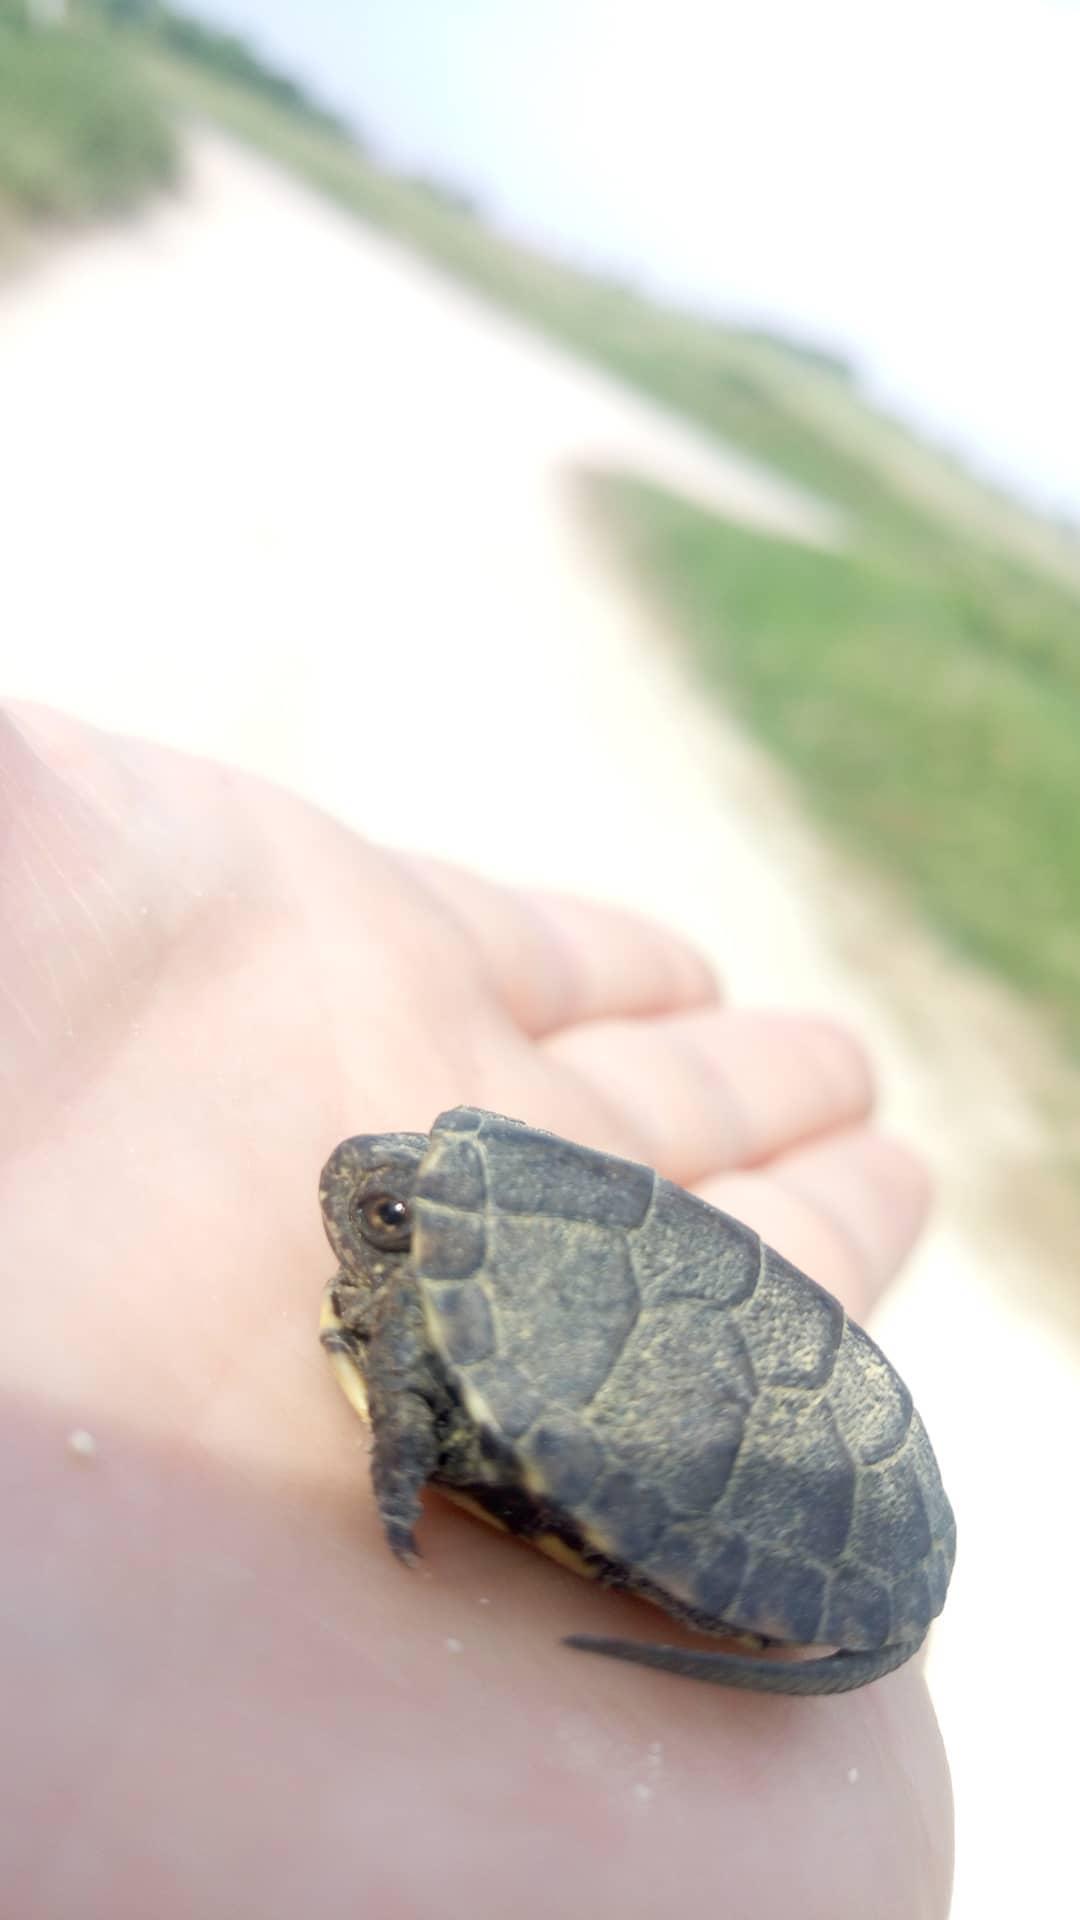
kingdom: Animalia
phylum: Chordata
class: Testudines
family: Emydidae
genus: Emys
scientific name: Emys orbicularis
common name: European pond turtle
